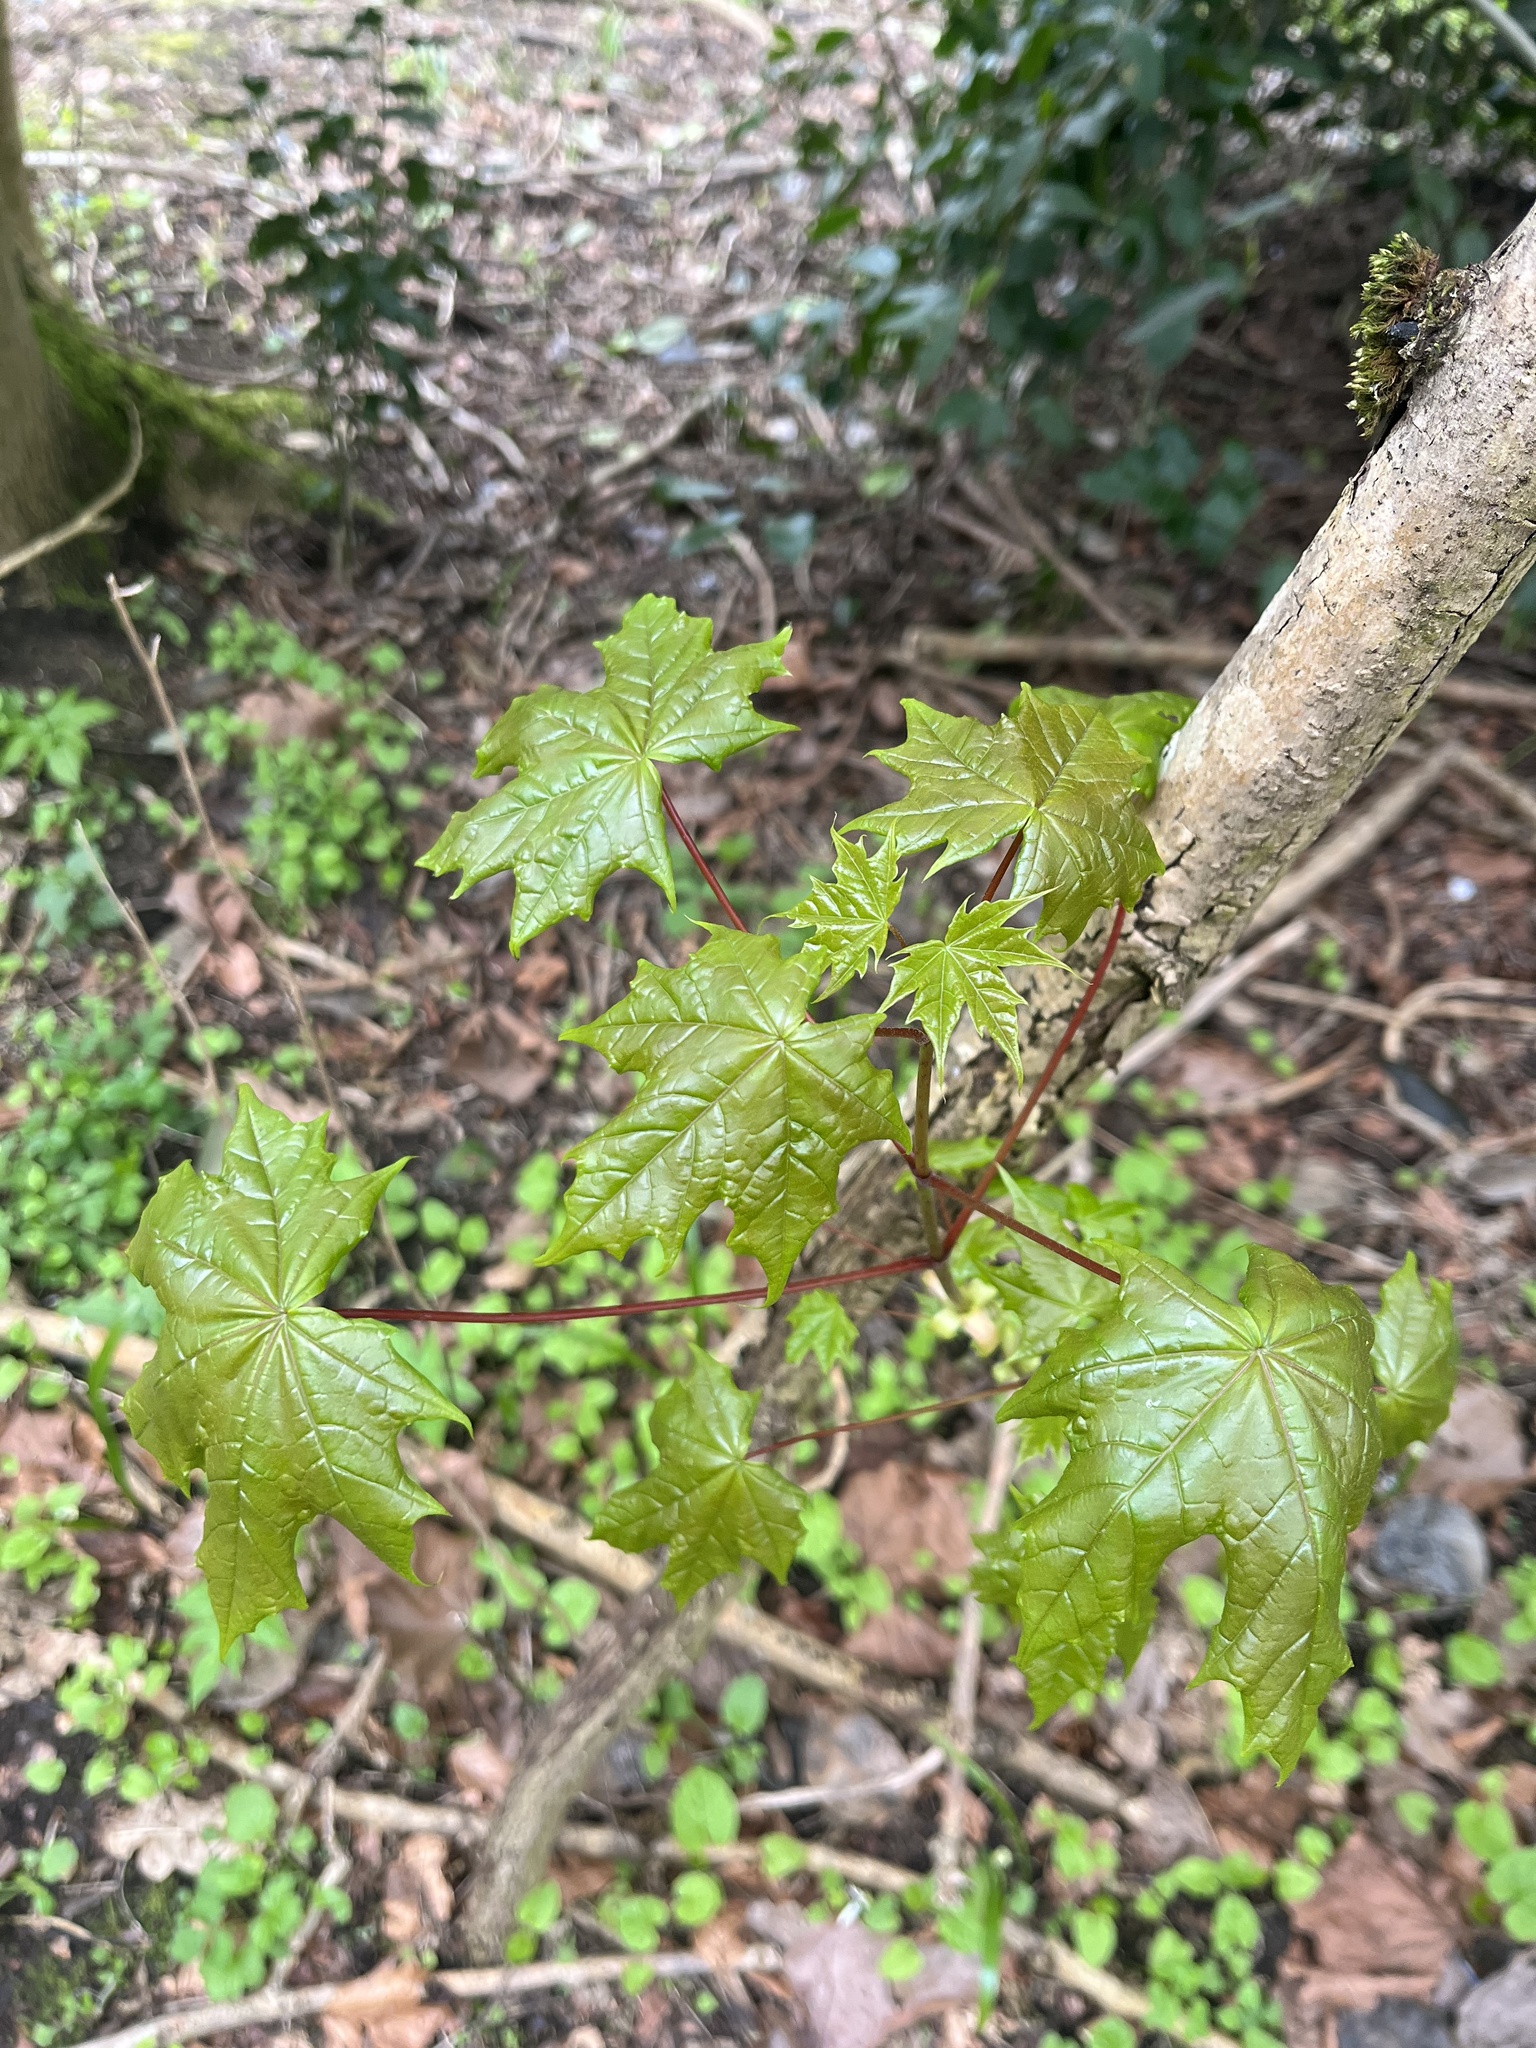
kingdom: Plantae
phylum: Tracheophyta
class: Magnoliopsida
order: Sapindales
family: Sapindaceae
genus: Acer
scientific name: Acer platanoides
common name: Norway maple
